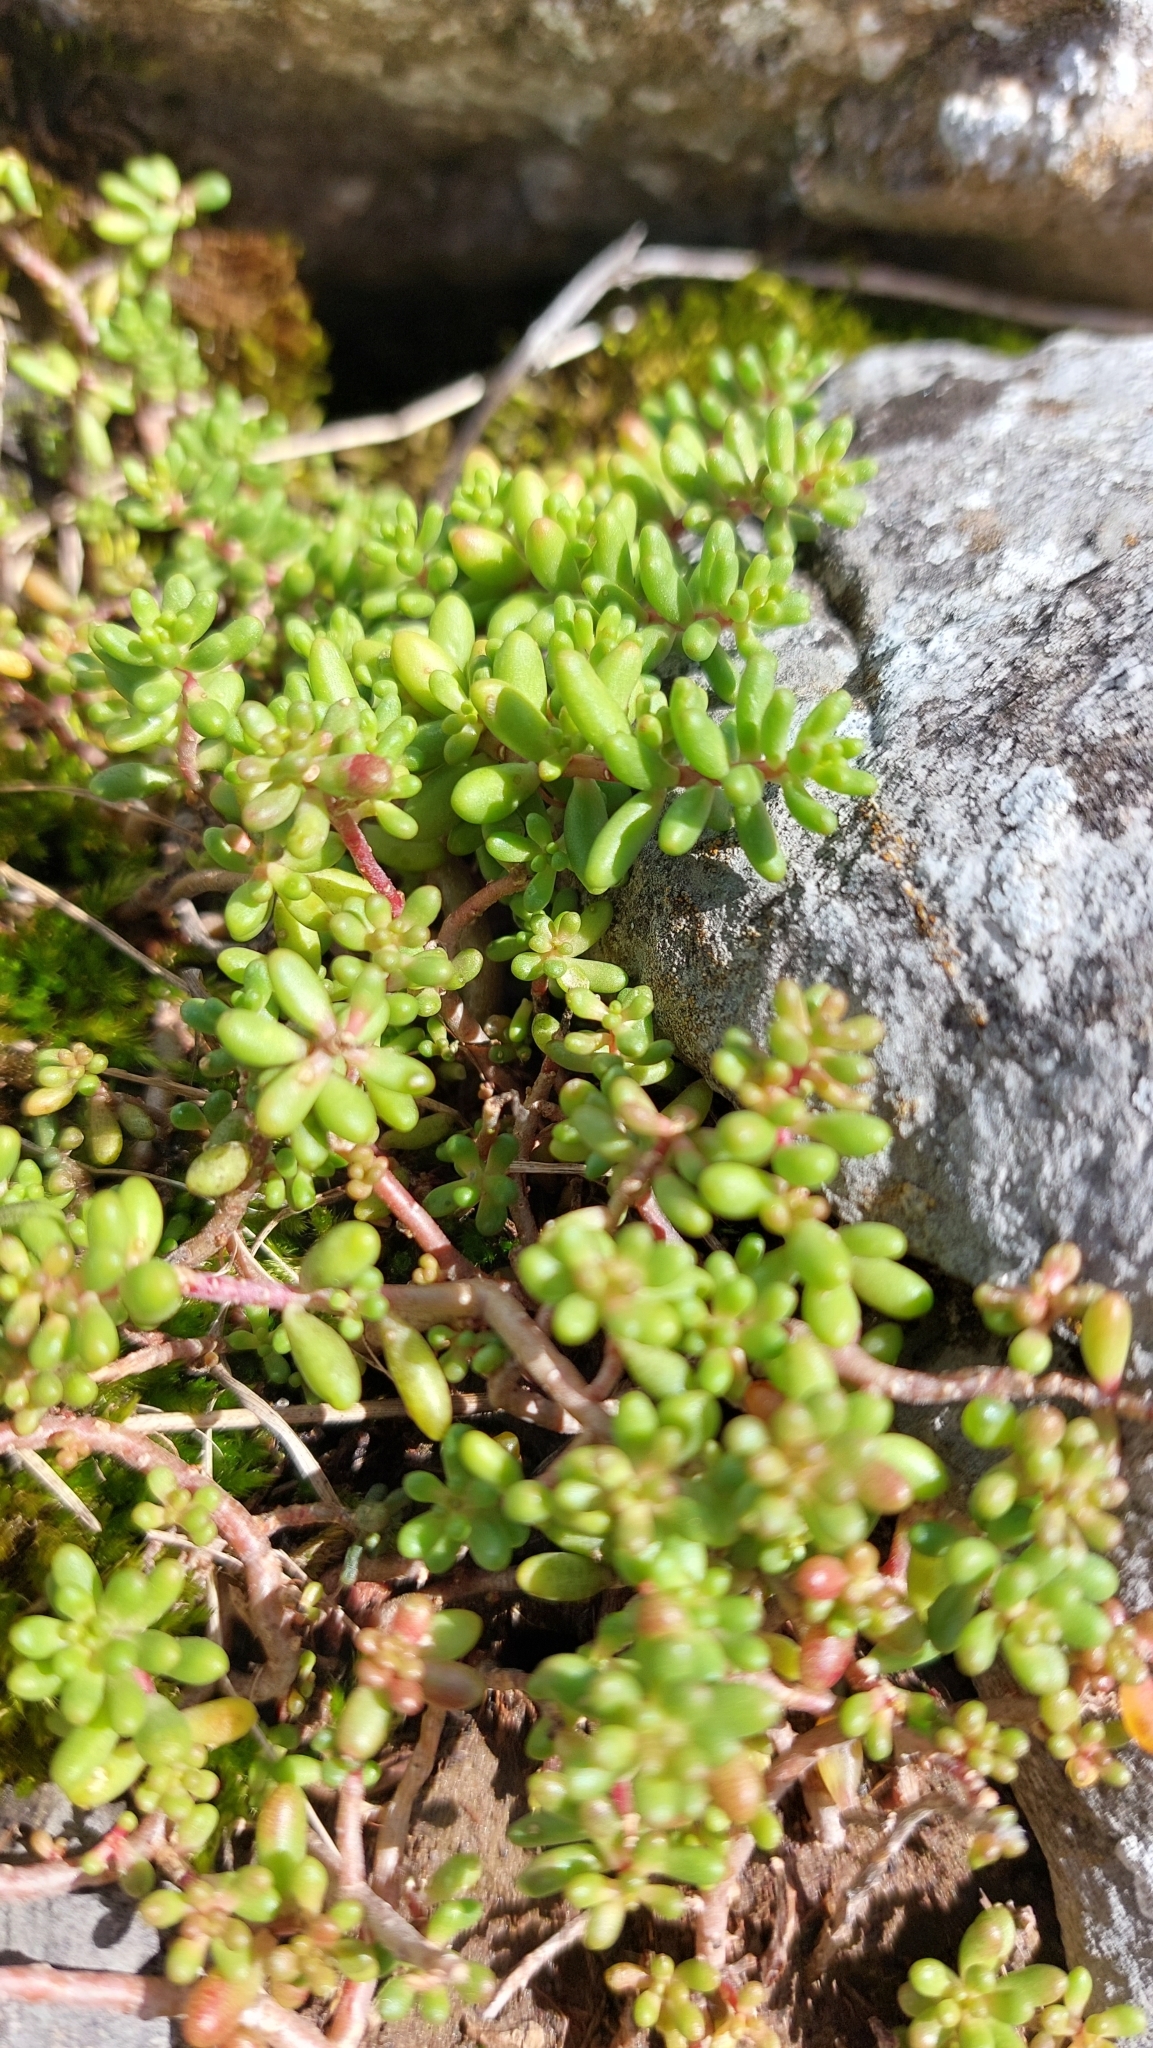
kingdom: Plantae
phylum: Tracheophyta
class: Magnoliopsida
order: Saxifragales
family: Crassulaceae
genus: Sedum
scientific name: Sedum album
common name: White stonecrop
